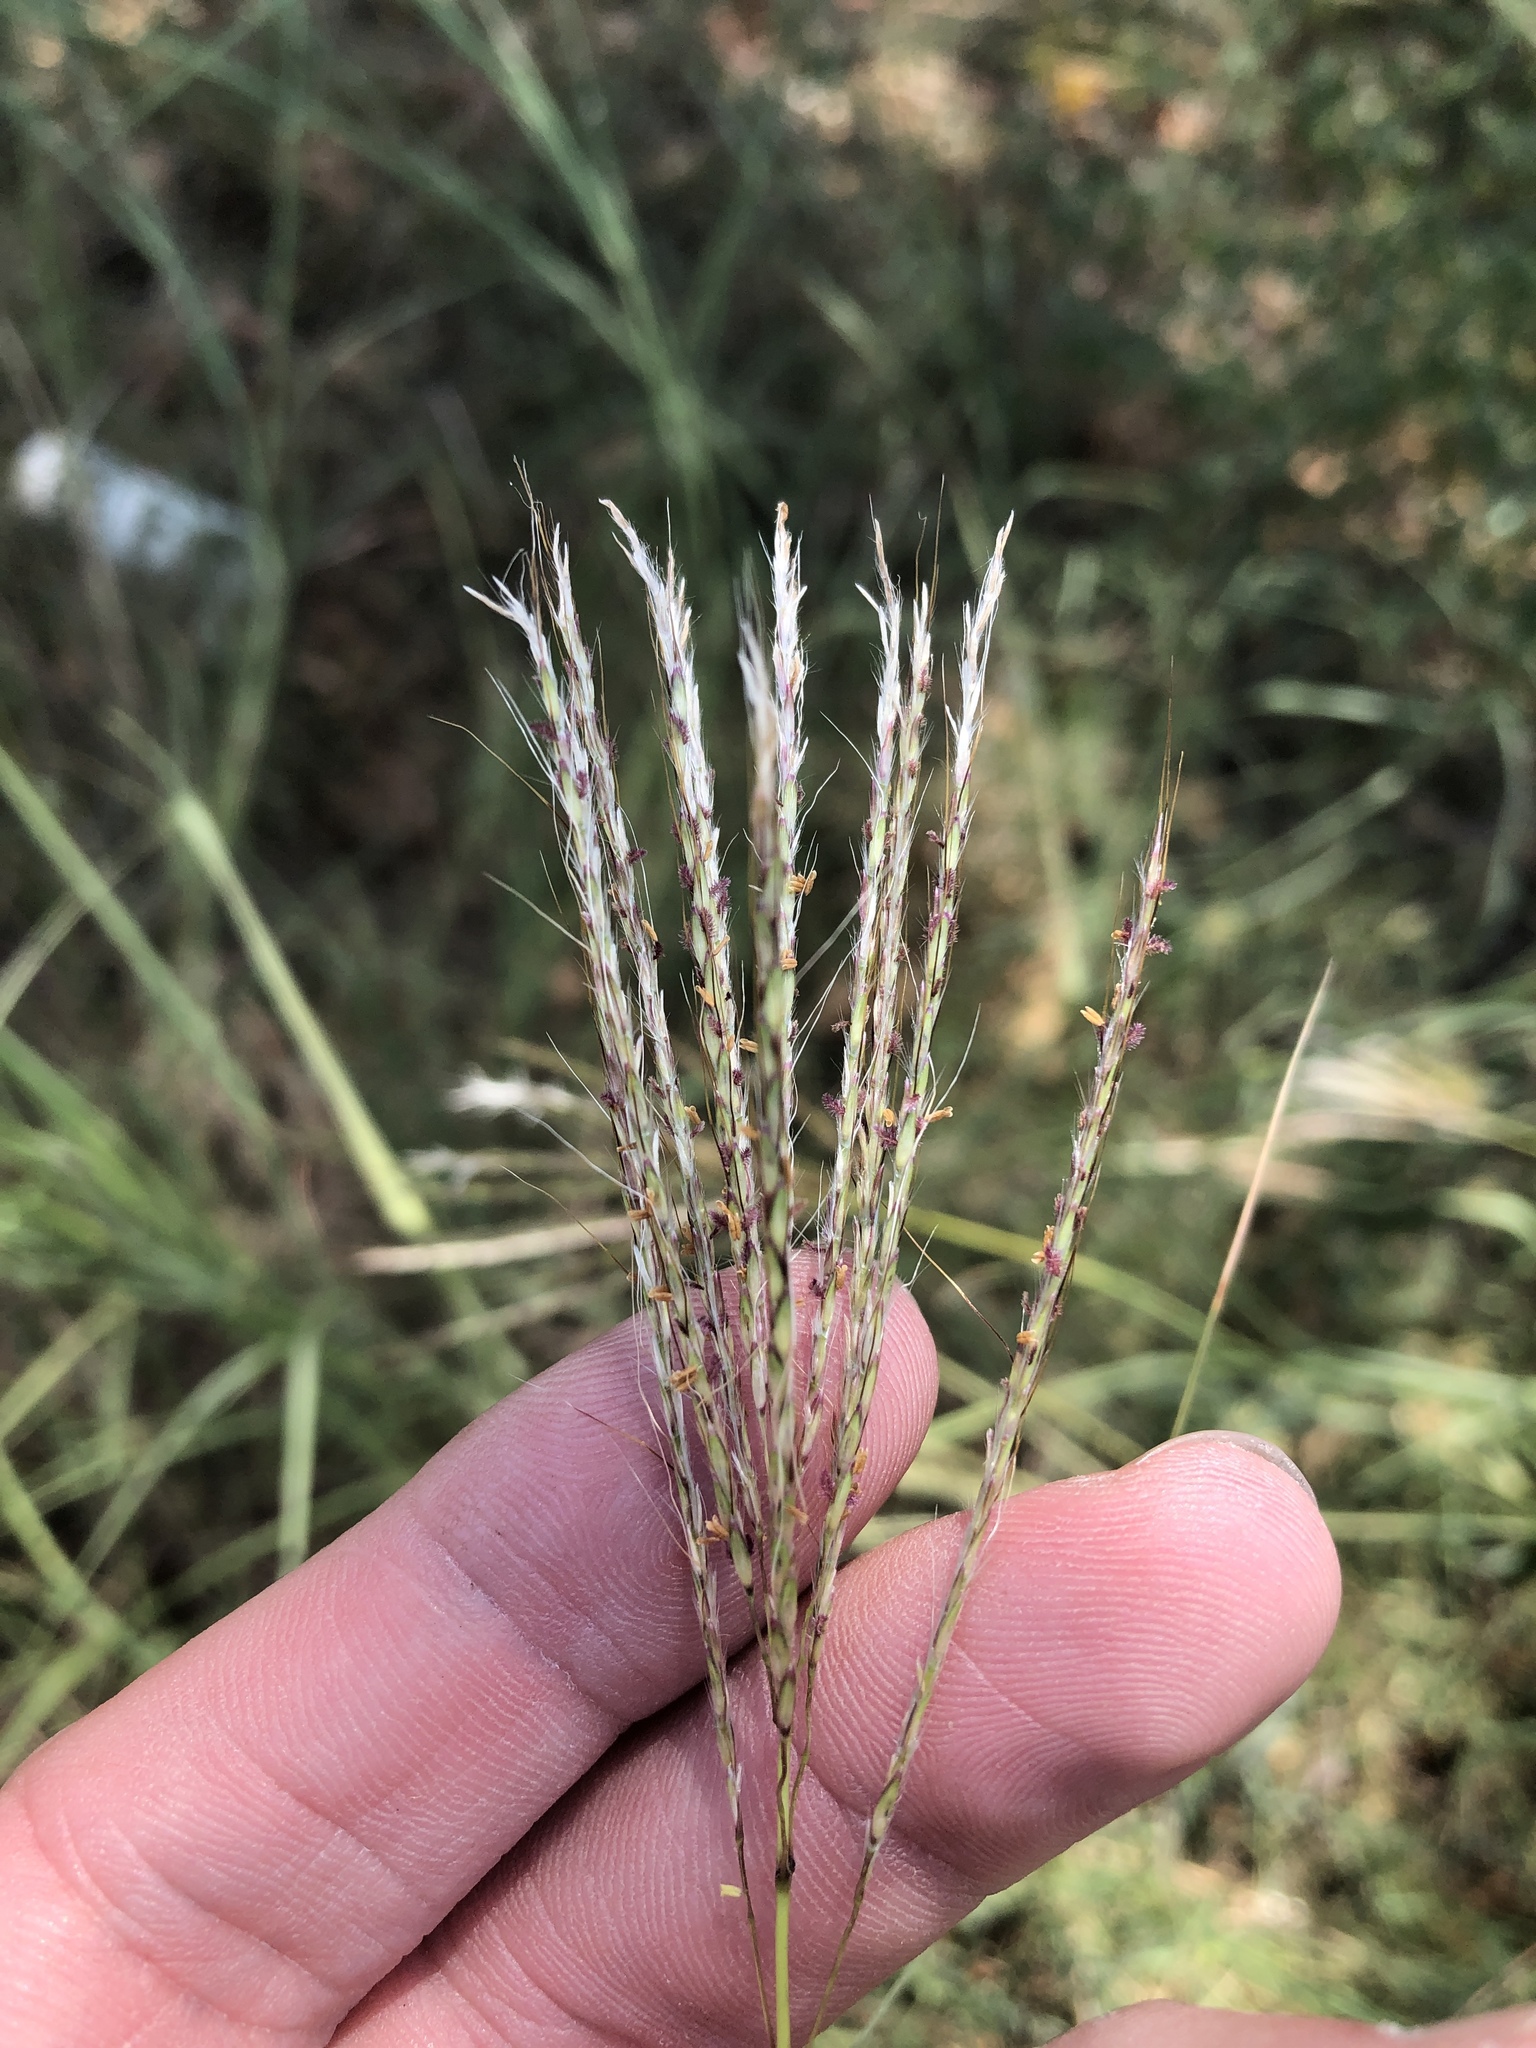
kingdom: Plantae
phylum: Tracheophyta
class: Liliopsida
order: Poales
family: Poaceae
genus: Bothriochloa
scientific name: Bothriochloa ischaemum
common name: Yellow bluestem
